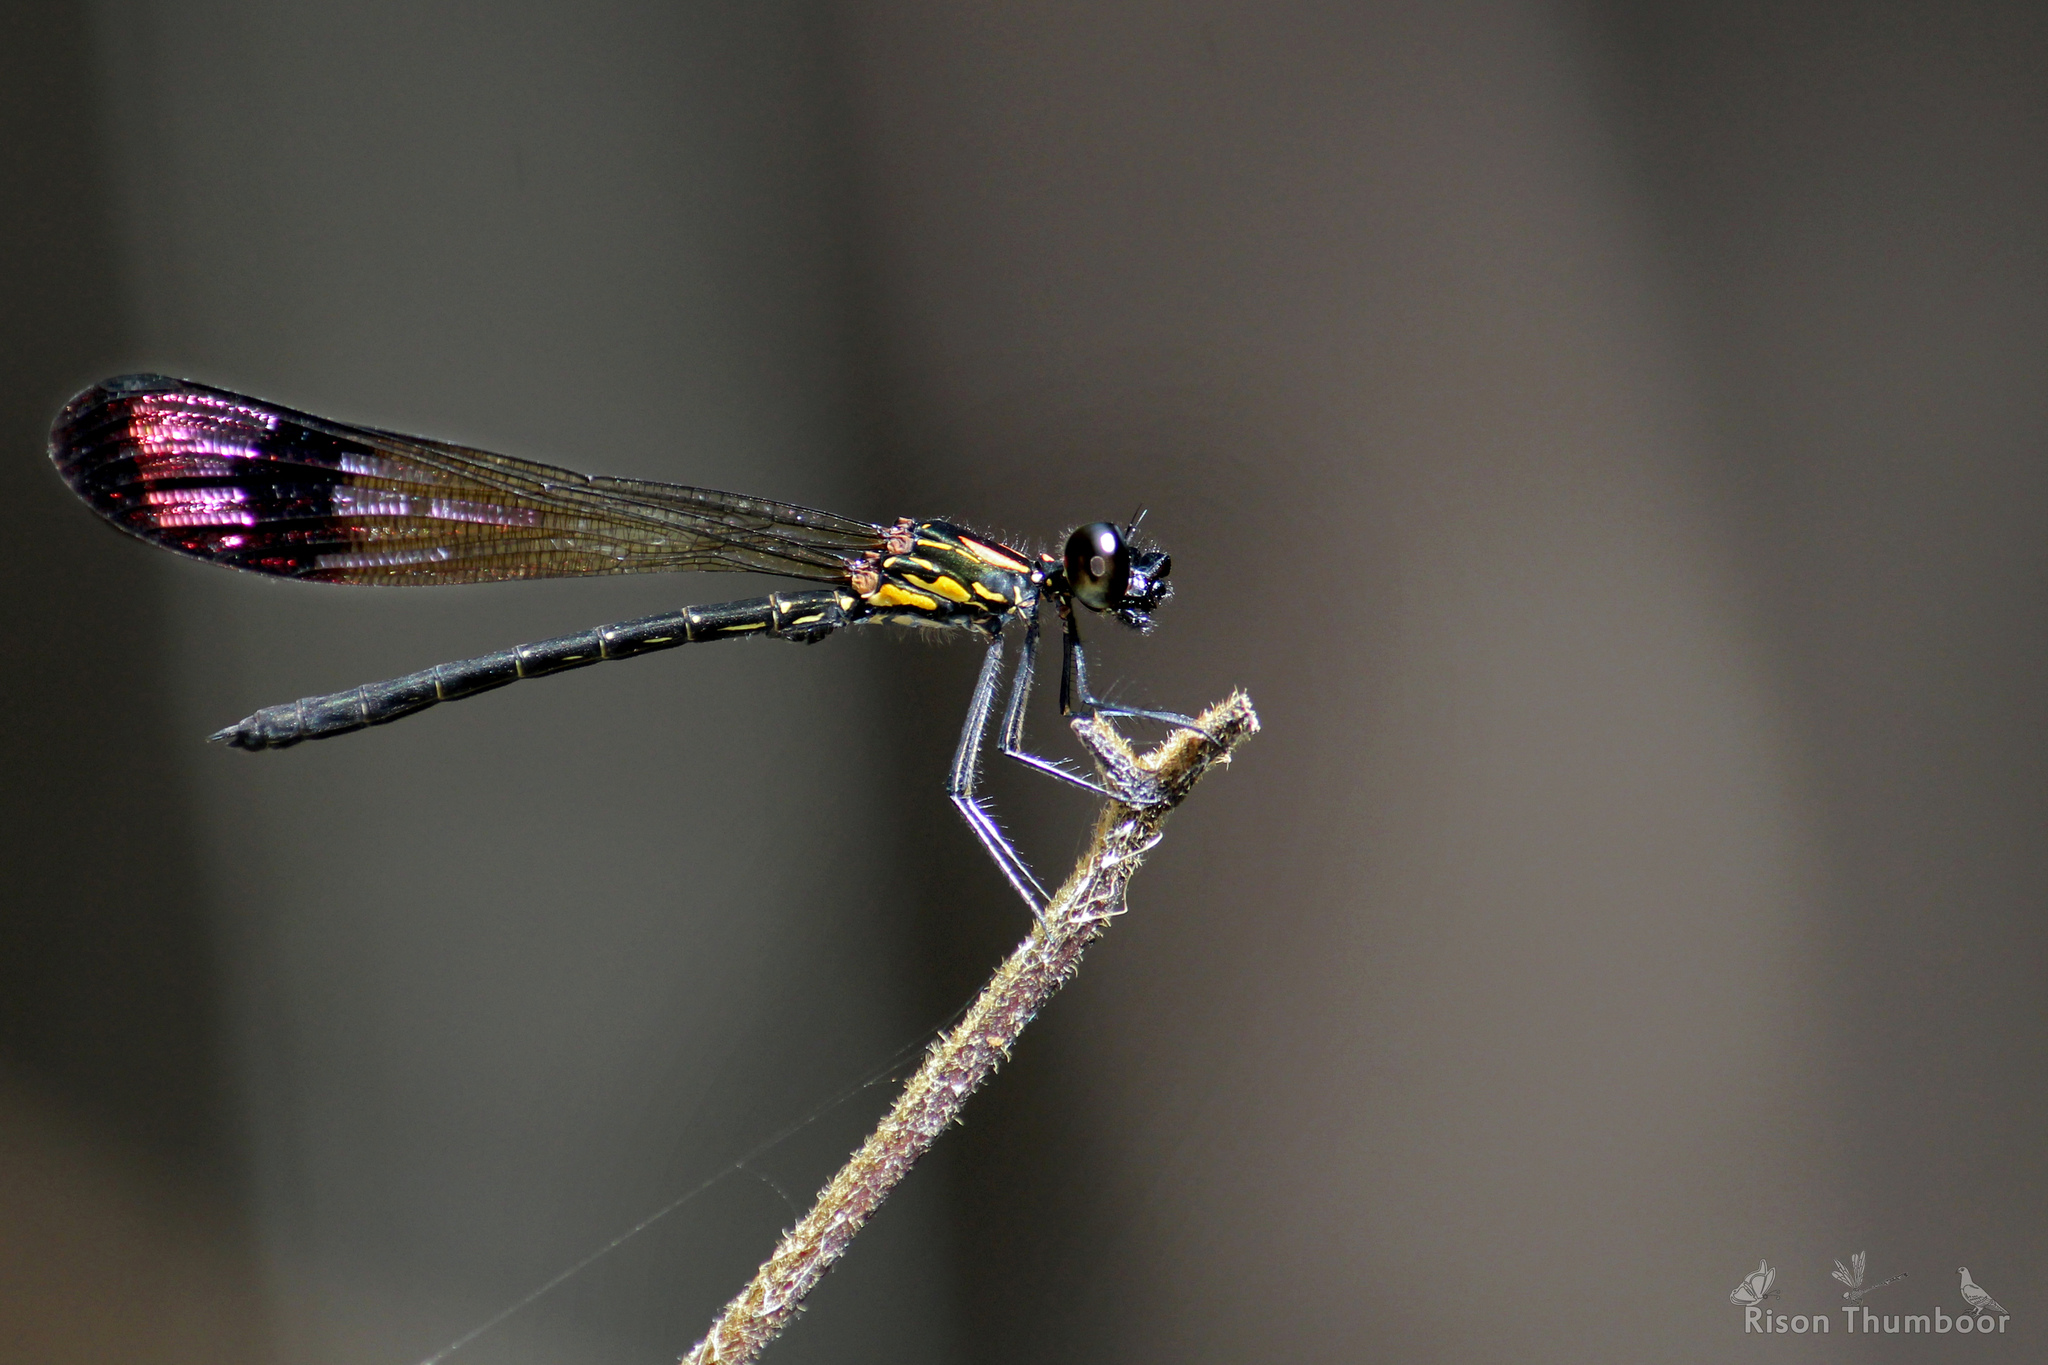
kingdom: Animalia
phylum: Arthropoda
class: Insecta
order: Odonata
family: Chlorocyphidae
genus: Heliocypha
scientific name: Heliocypha bisignata
